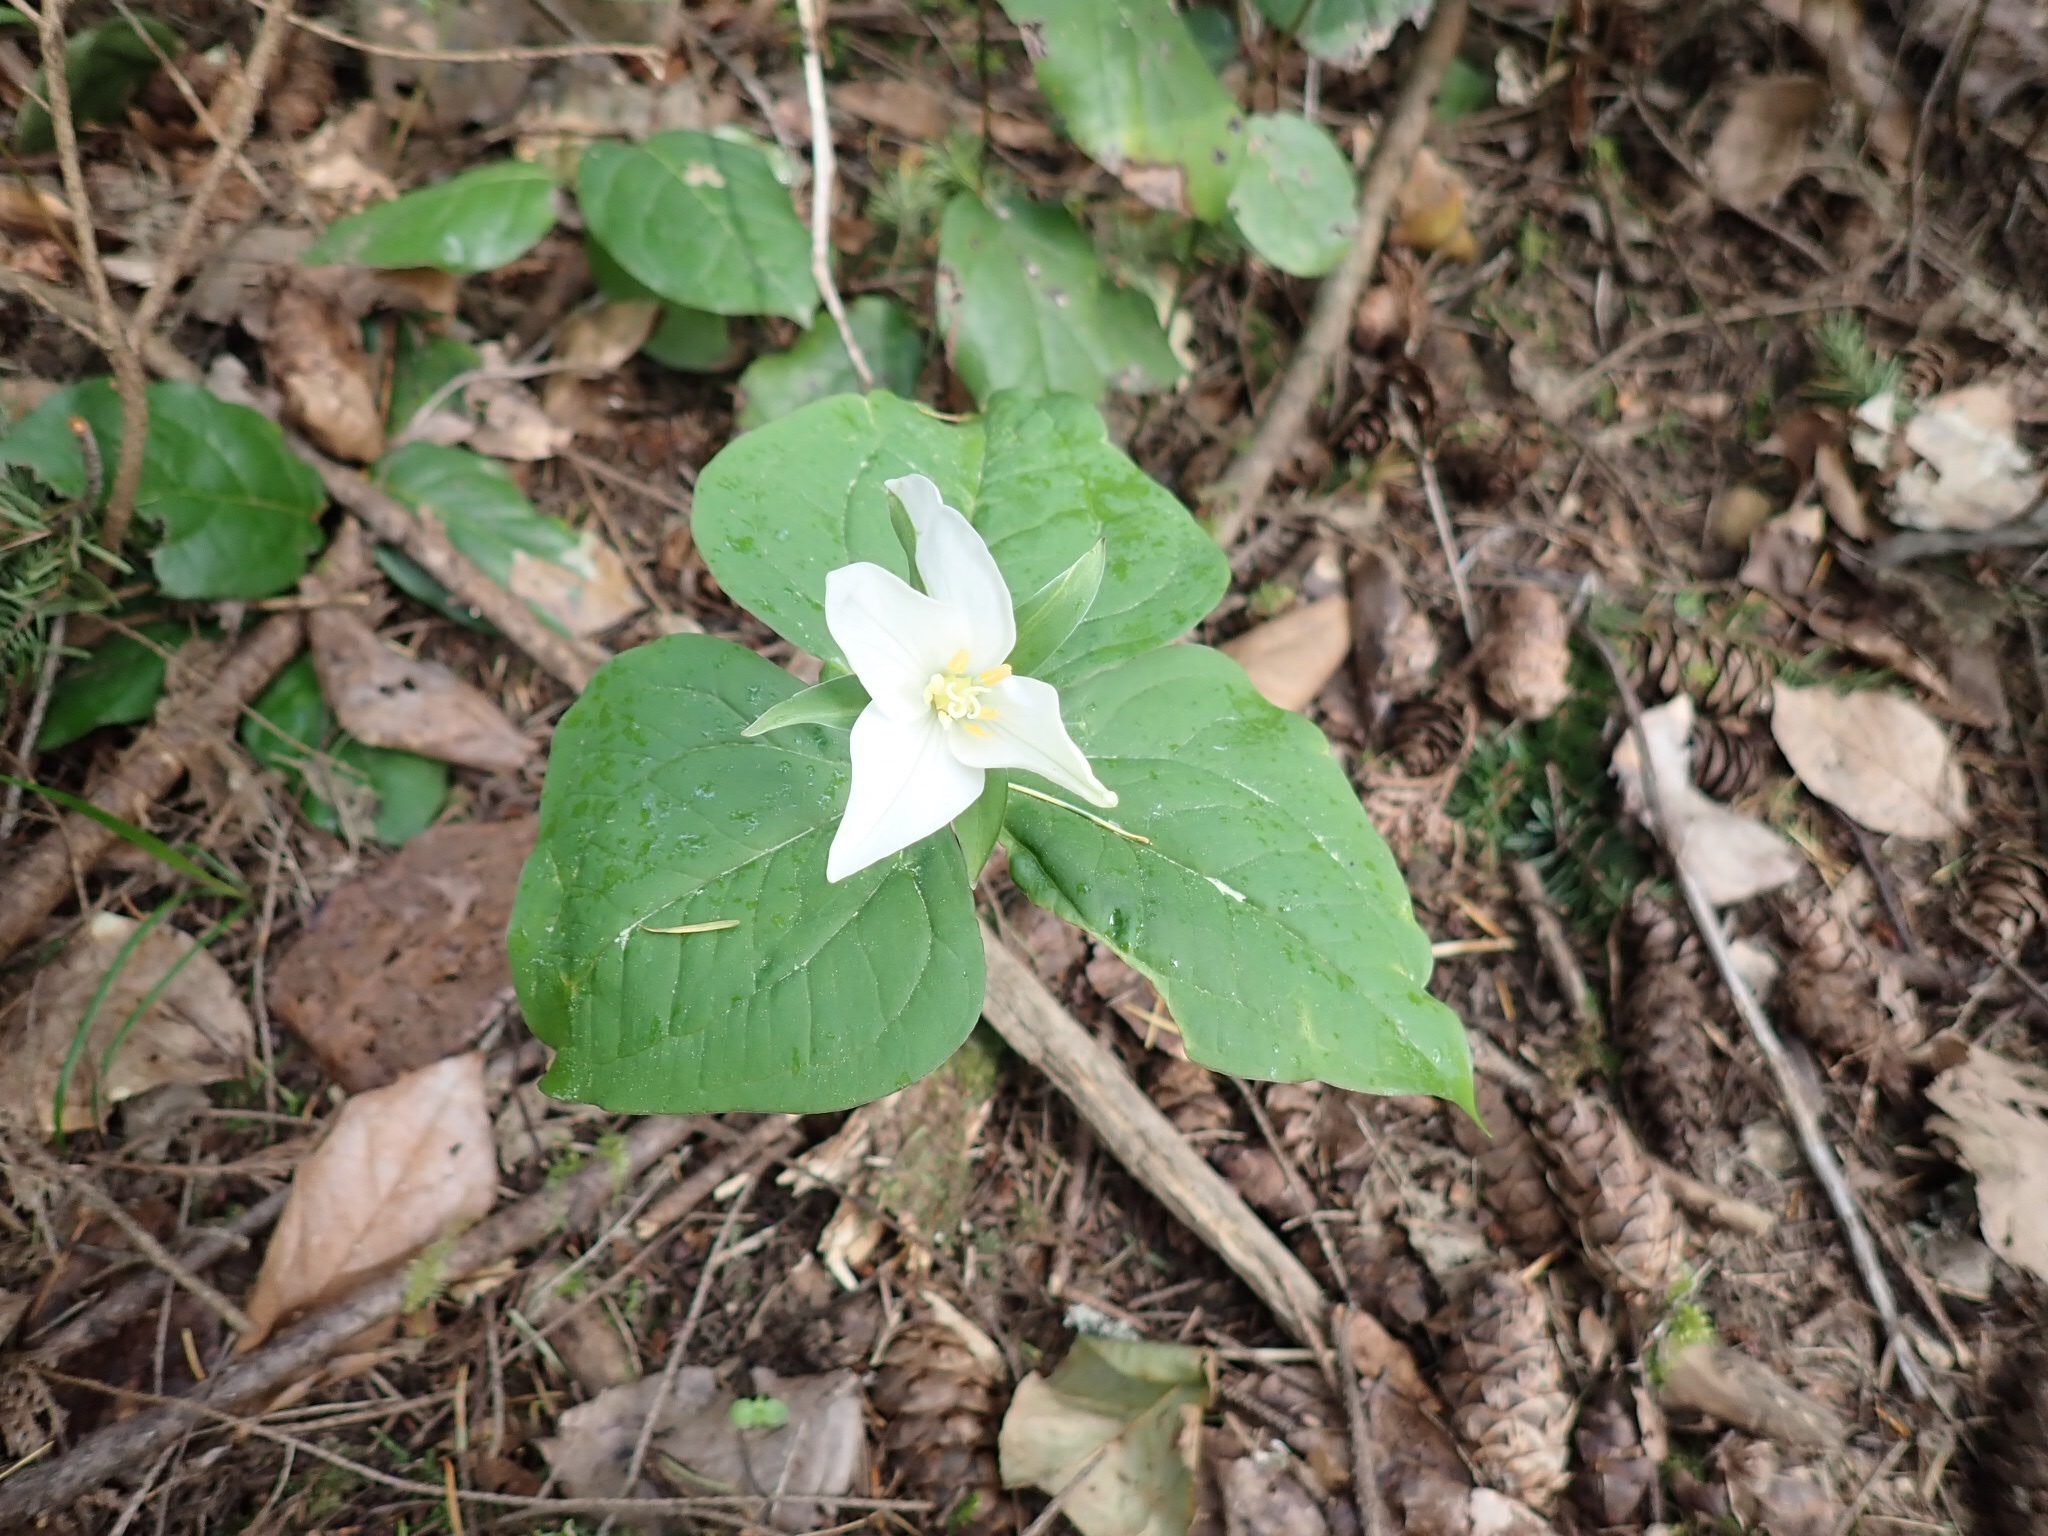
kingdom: Plantae
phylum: Tracheophyta
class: Liliopsida
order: Liliales
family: Melanthiaceae
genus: Trillium
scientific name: Trillium ovatum
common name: Pacific trillium
